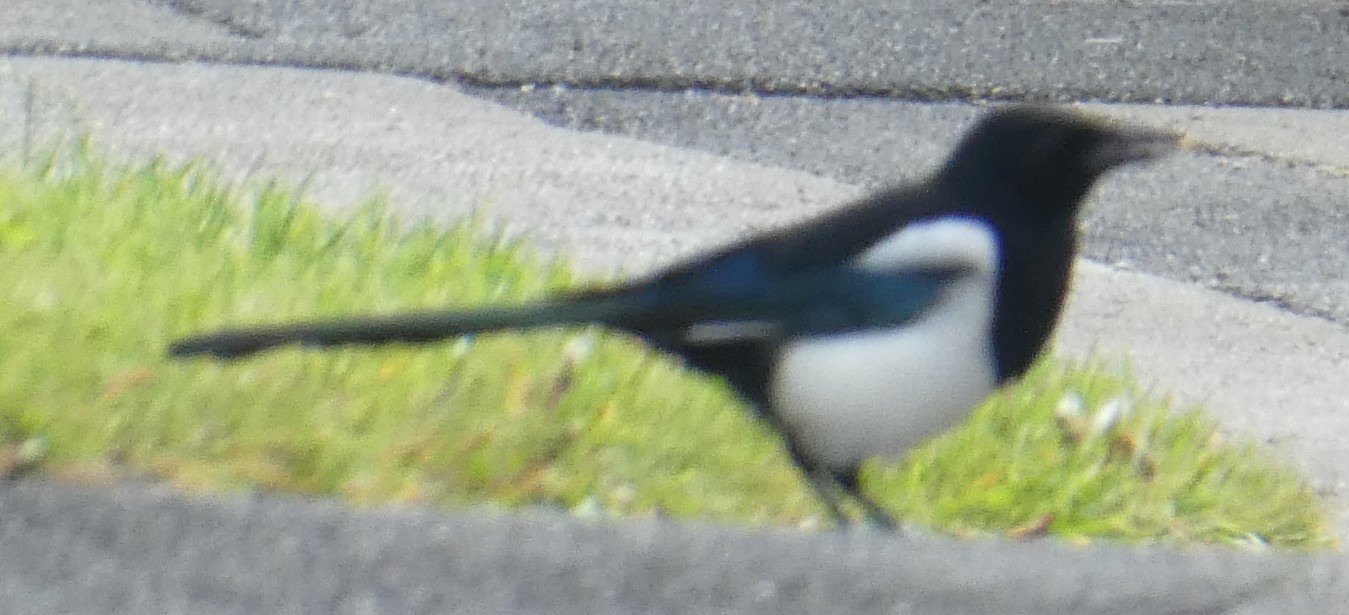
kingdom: Animalia
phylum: Chordata
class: Aves
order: Passeriformes
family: Corvidae
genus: Pica
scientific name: Pica pica
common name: Eurasian magpie
